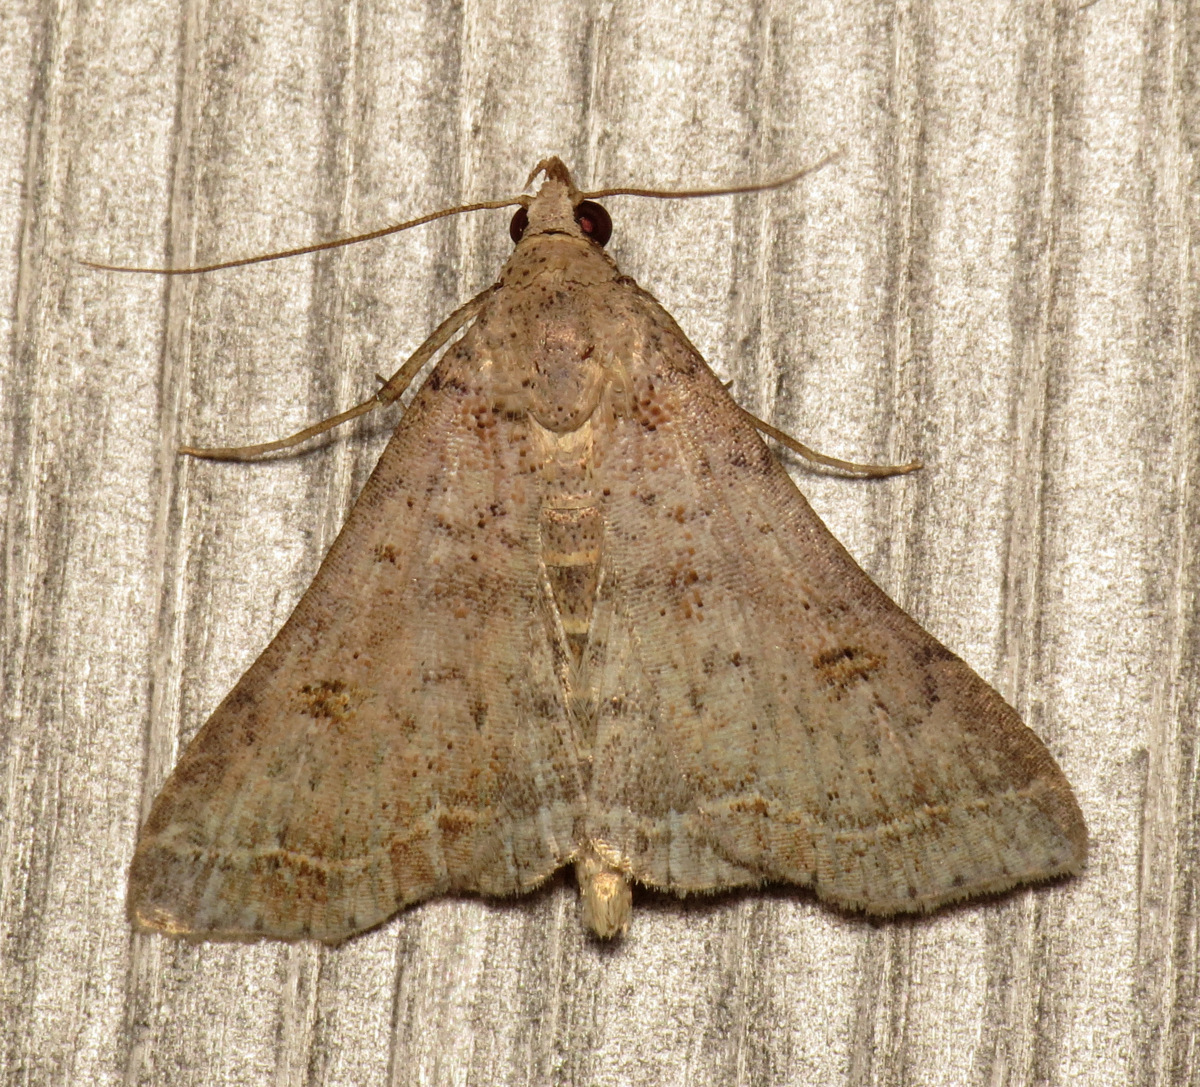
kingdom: Animalia
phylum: Arthropoda
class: Insecta
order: Lepidoptera
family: Erebidae
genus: Bleptina
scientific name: Bleptina caradrinalis
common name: Bent-winged owlet
